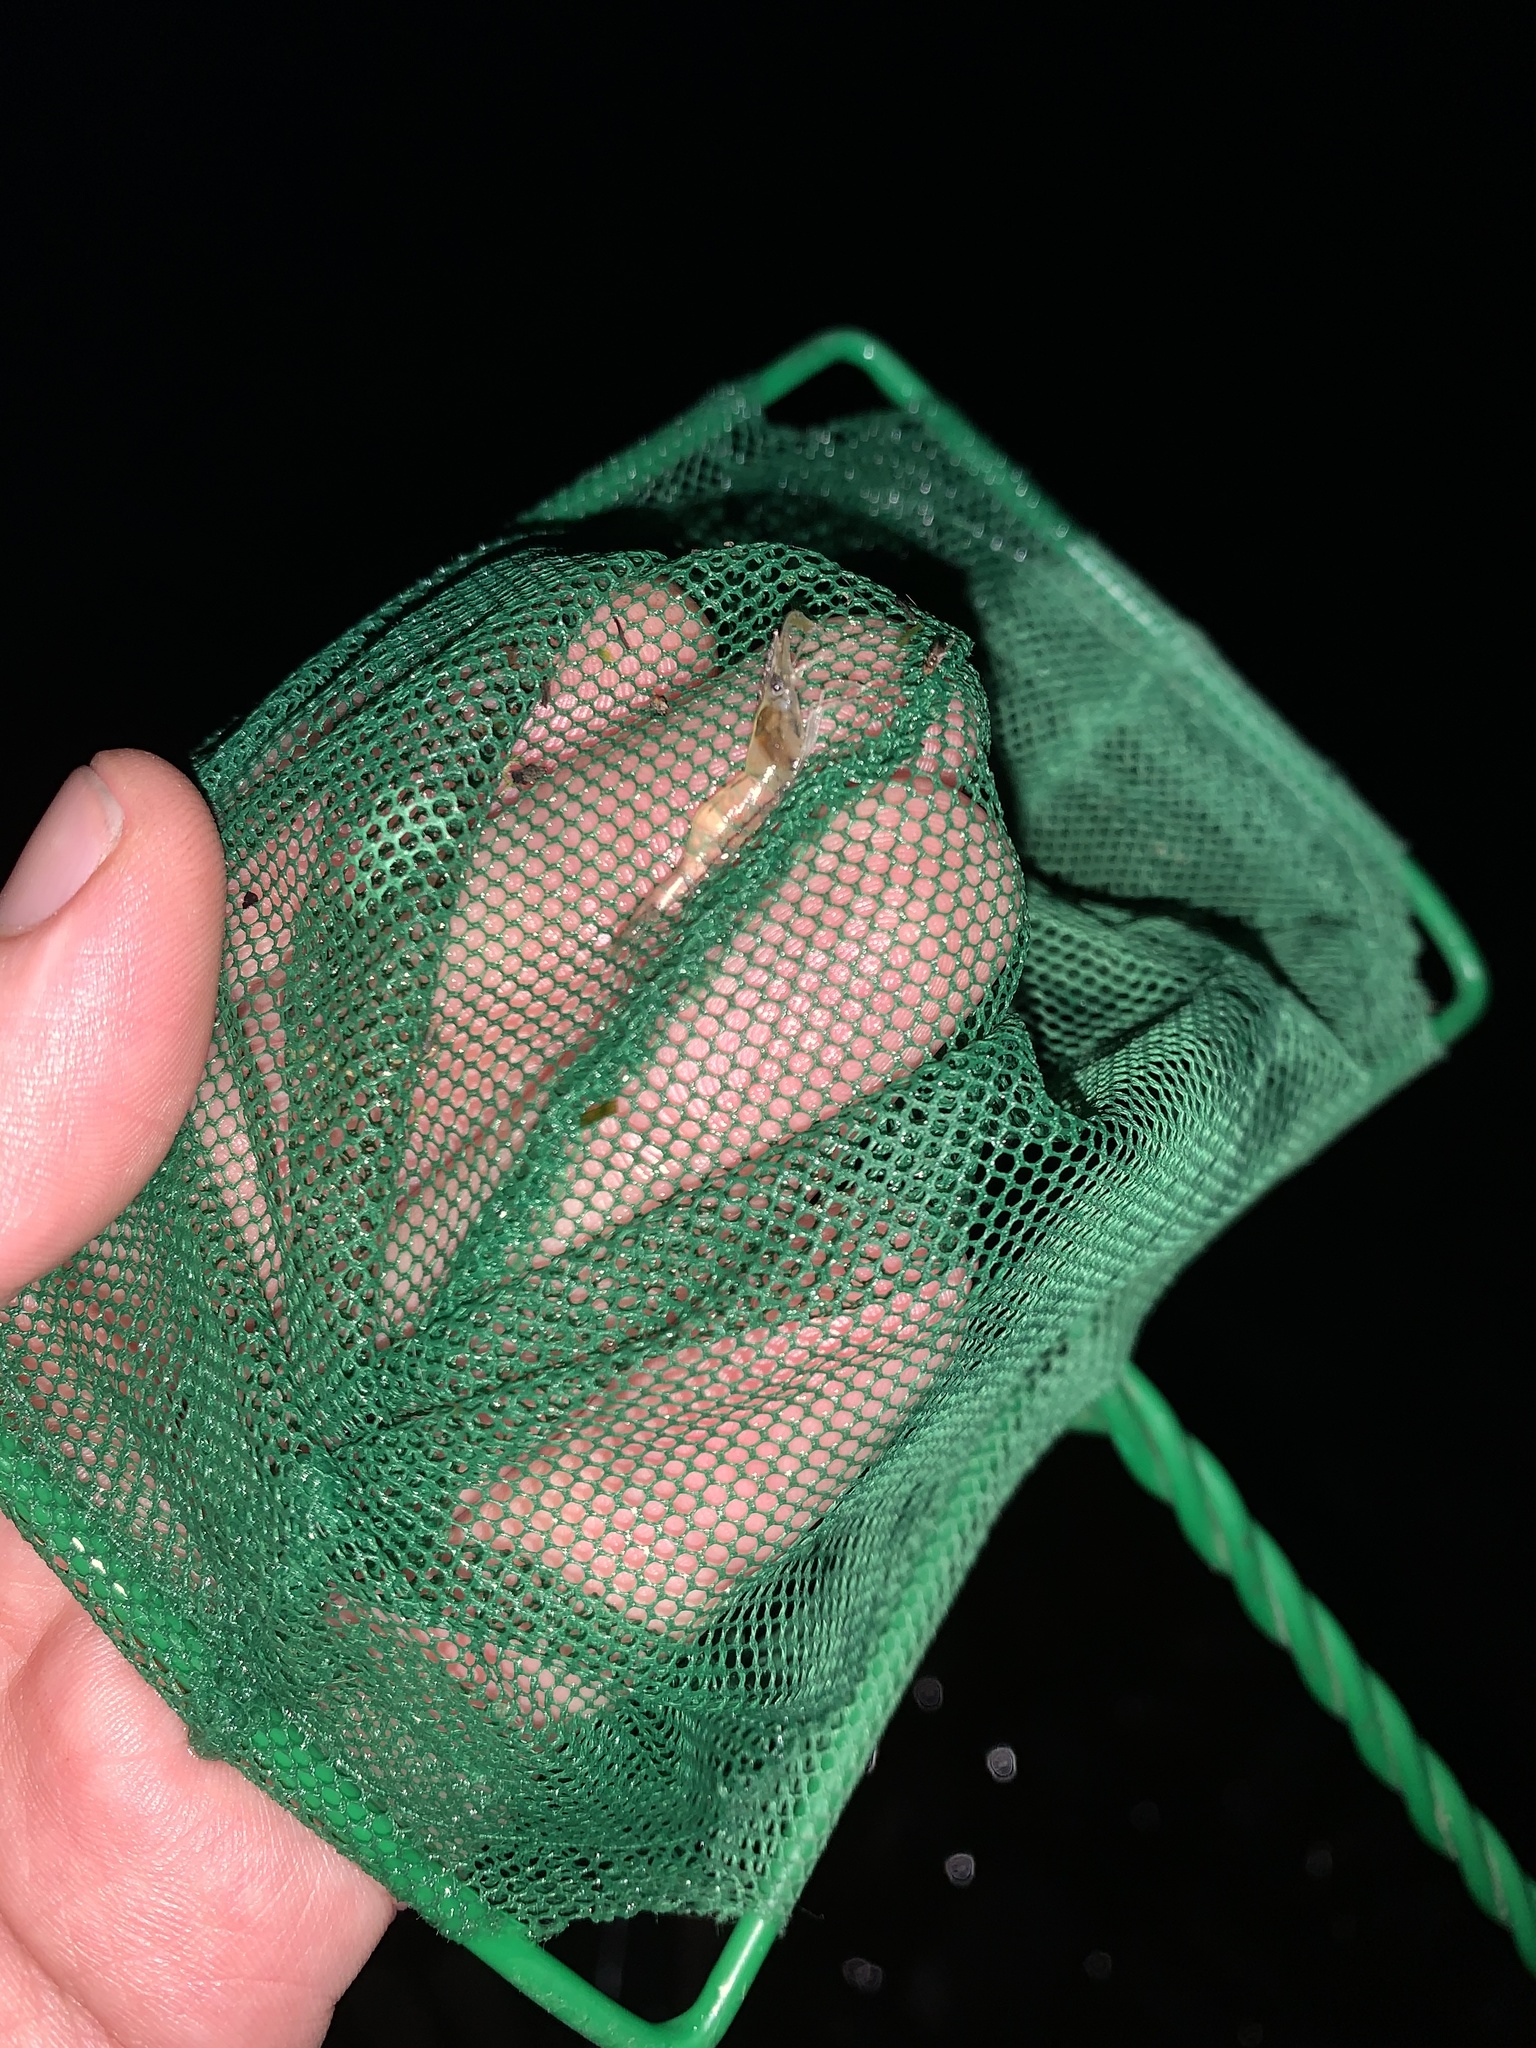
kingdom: Animalia
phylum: Arthropoda
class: Malacostraca
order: Decapoda
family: Palaemonidae
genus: Palaemon
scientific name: Palaemon argentinus
